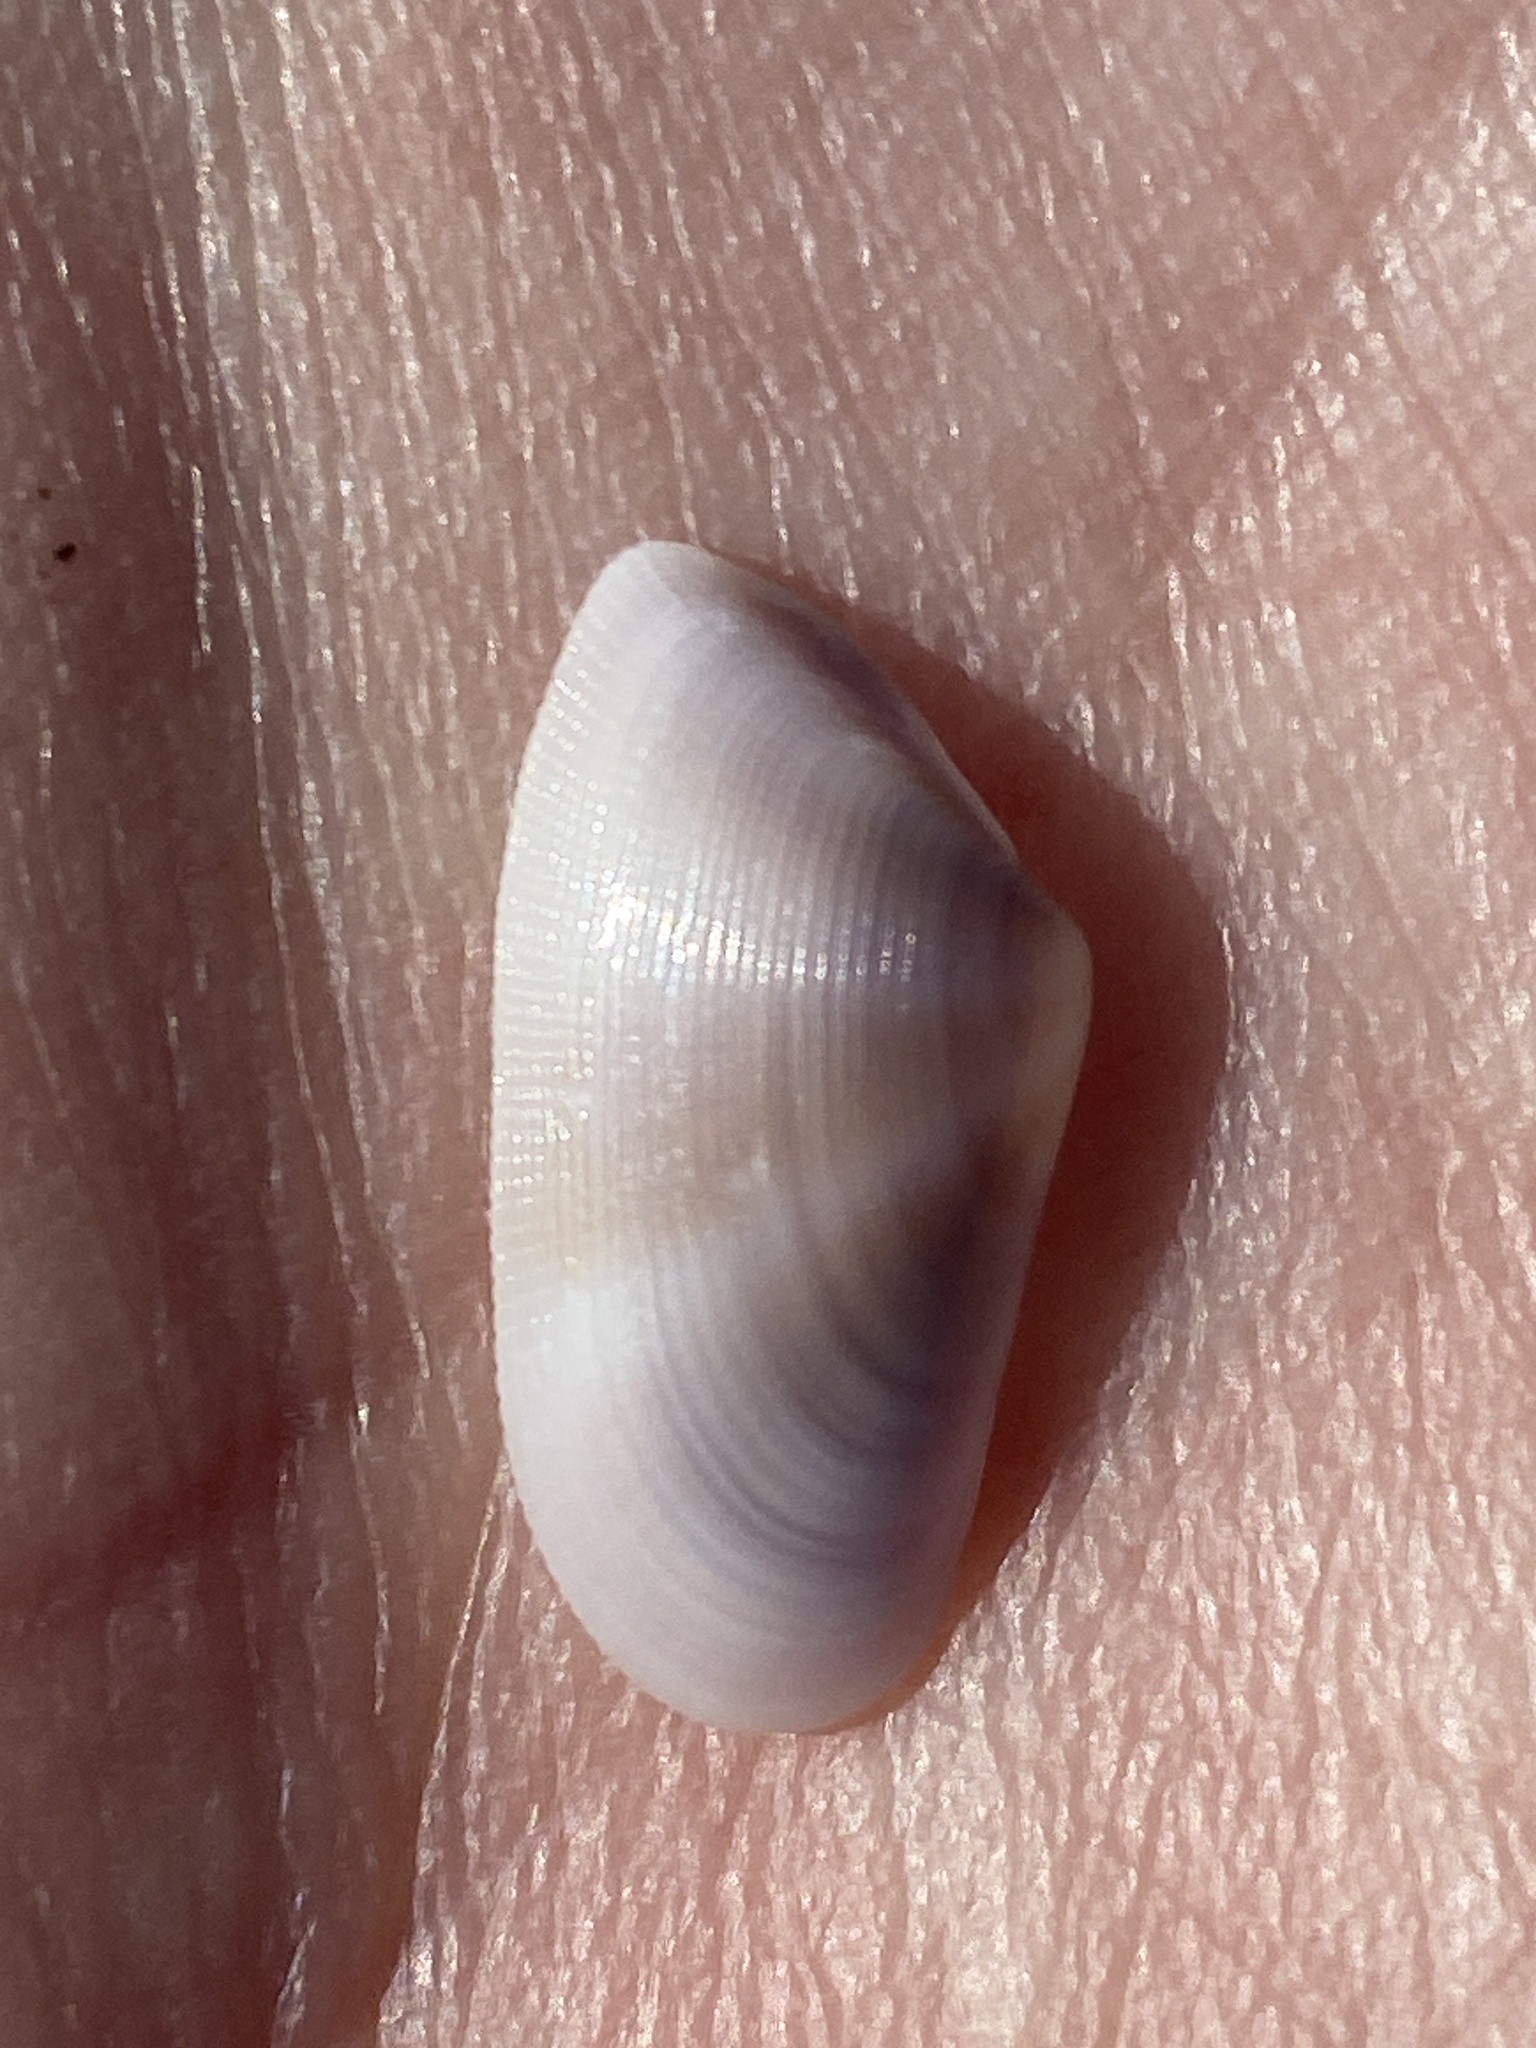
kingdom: Animalia
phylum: Mollusca
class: Bivalvia
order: Cardiida
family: Donacidae
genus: Donax
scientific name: Donax semistriatus
